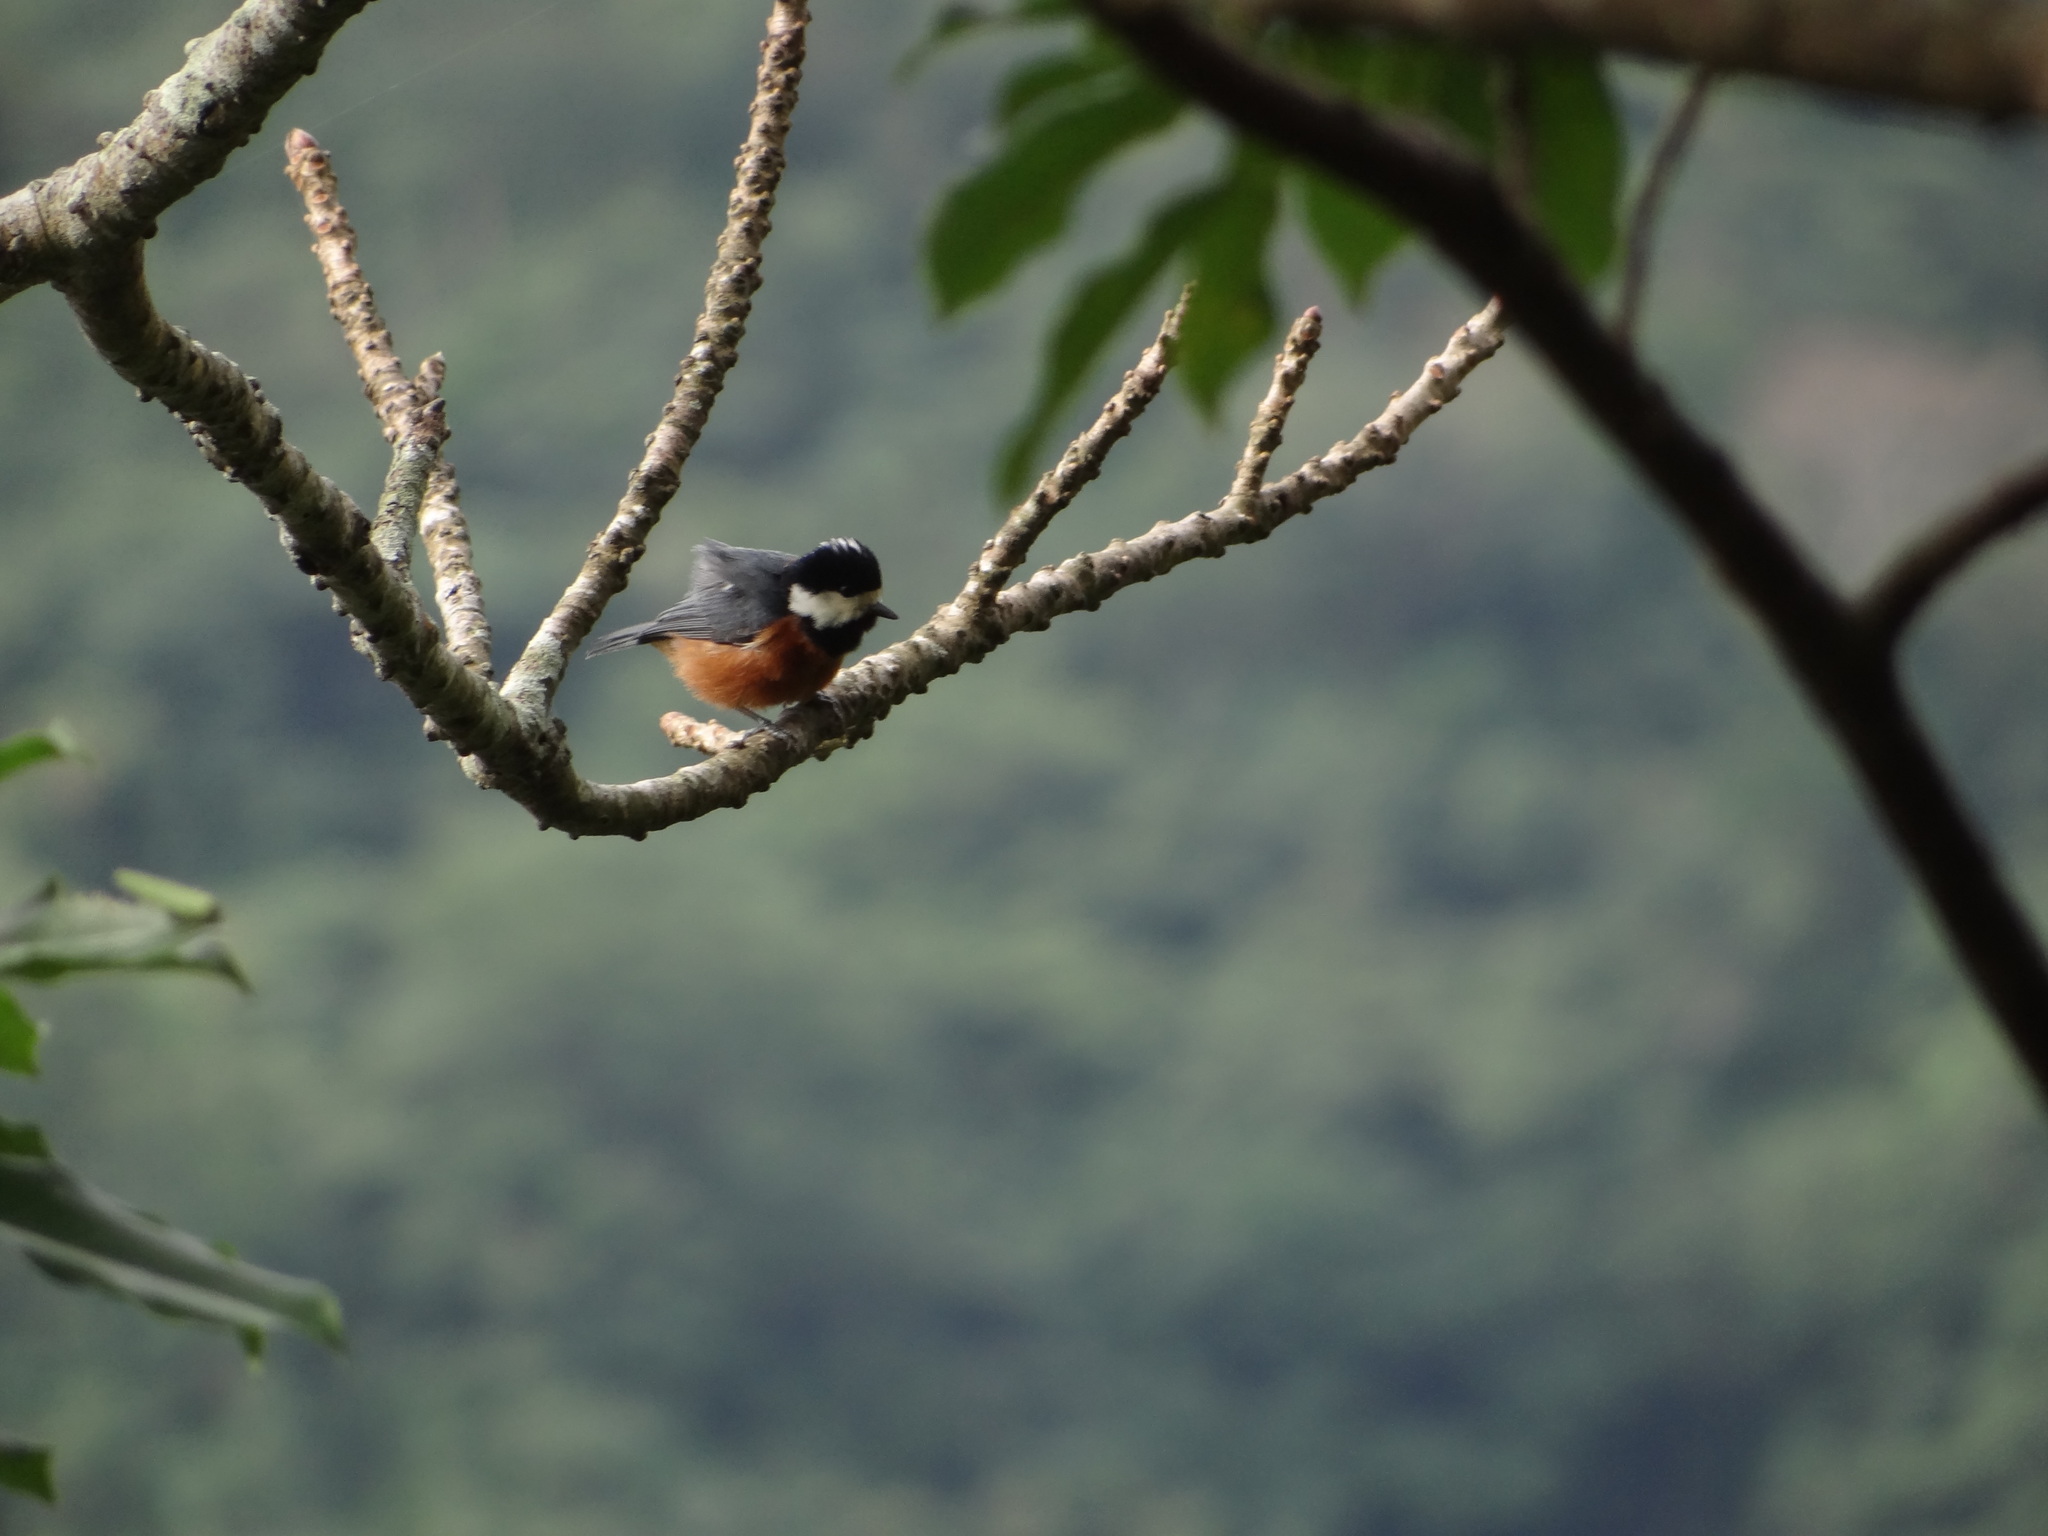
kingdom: Animalia
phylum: Chordata
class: Aves
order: Passeriformes
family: Paridae
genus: Poecile
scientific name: Poecile varius
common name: Varied tit
